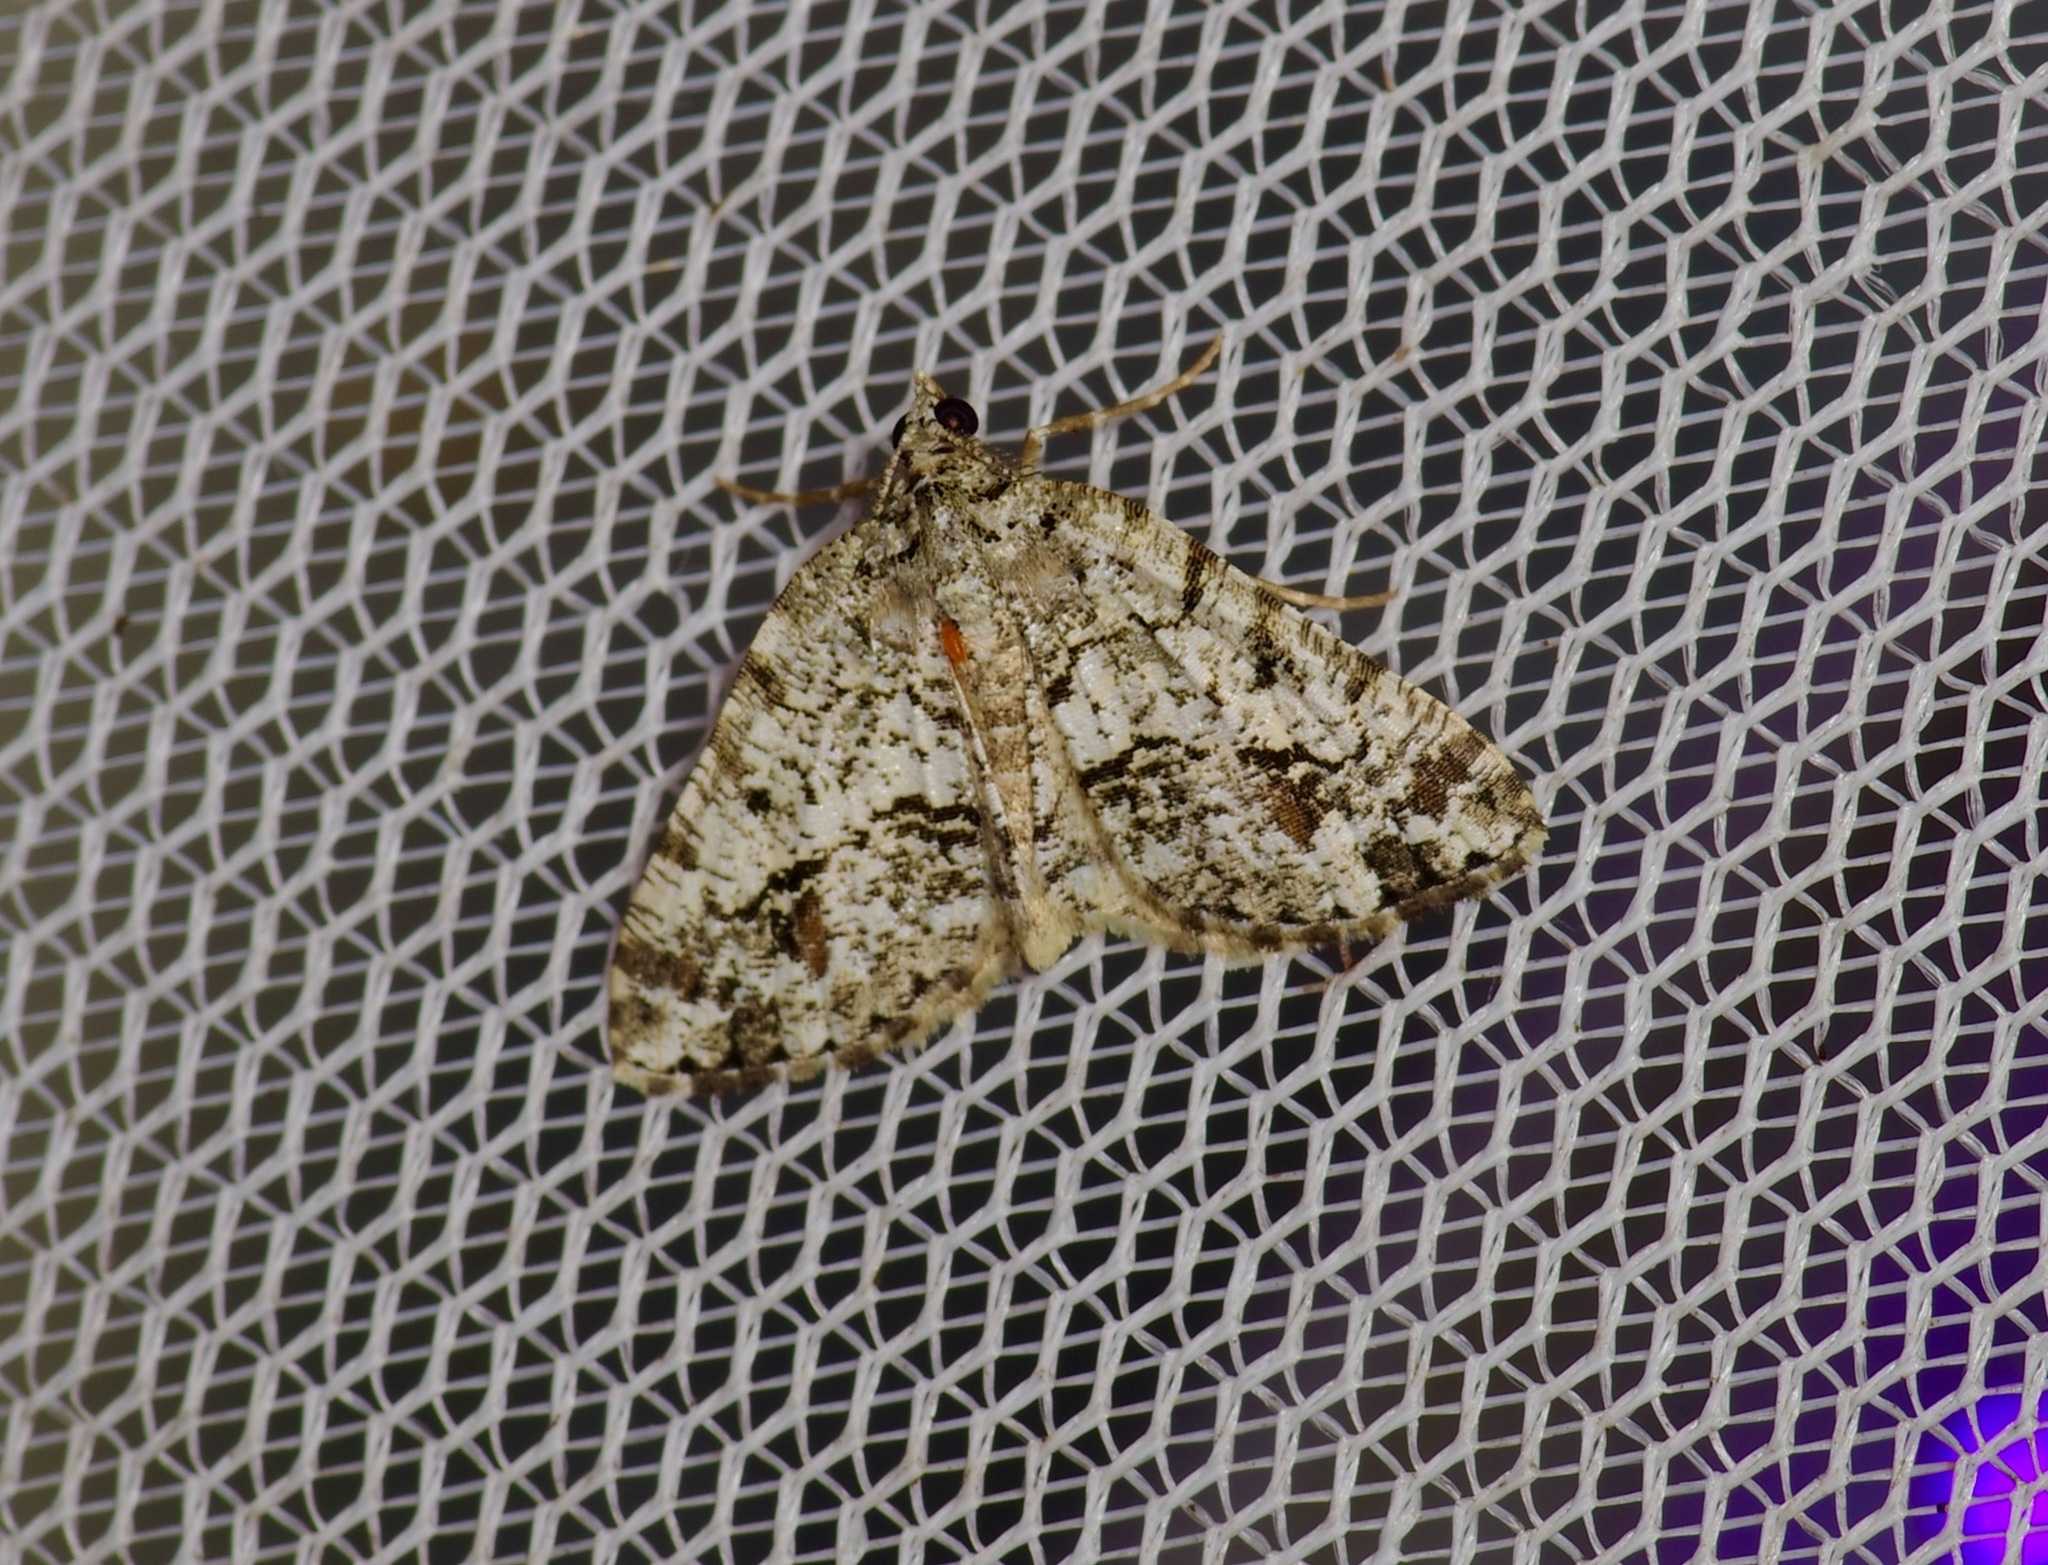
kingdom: Animalia
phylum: Arthropoda
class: Insecta
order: Lepidoptera
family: Geometridae
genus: Macaria
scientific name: Macaria graphidaria
